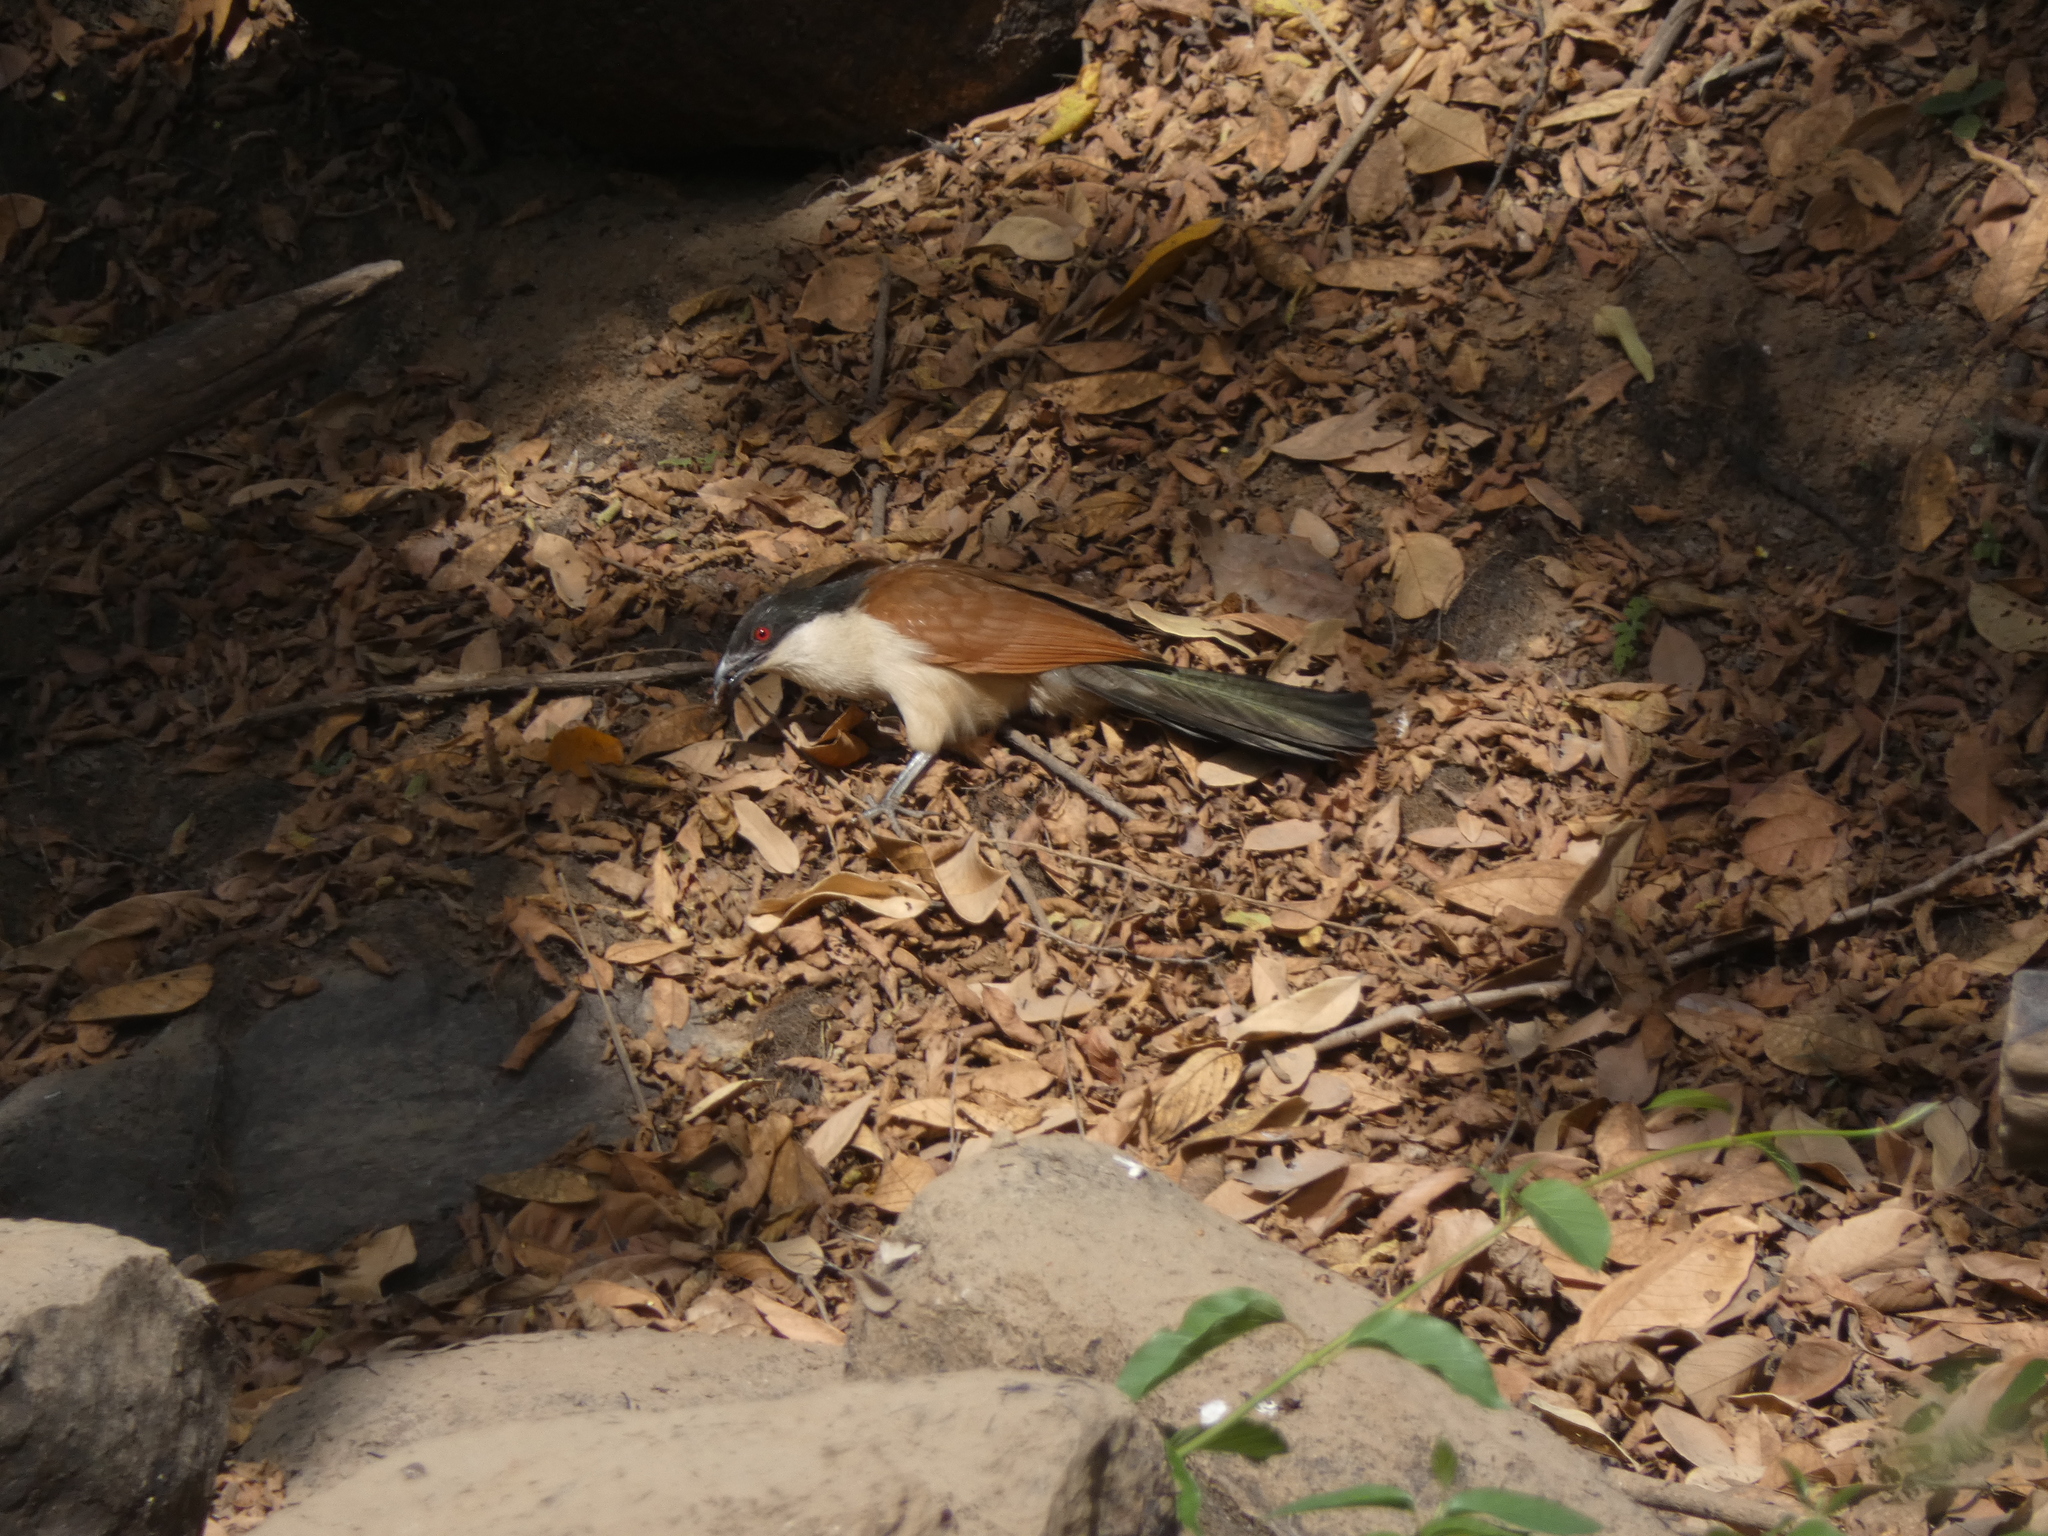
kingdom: Animalia
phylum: Chordata
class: Aves
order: Cuculiformes
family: Cuculidae
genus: Centropus
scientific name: Centropus senegalensis
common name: Senegal coucal
